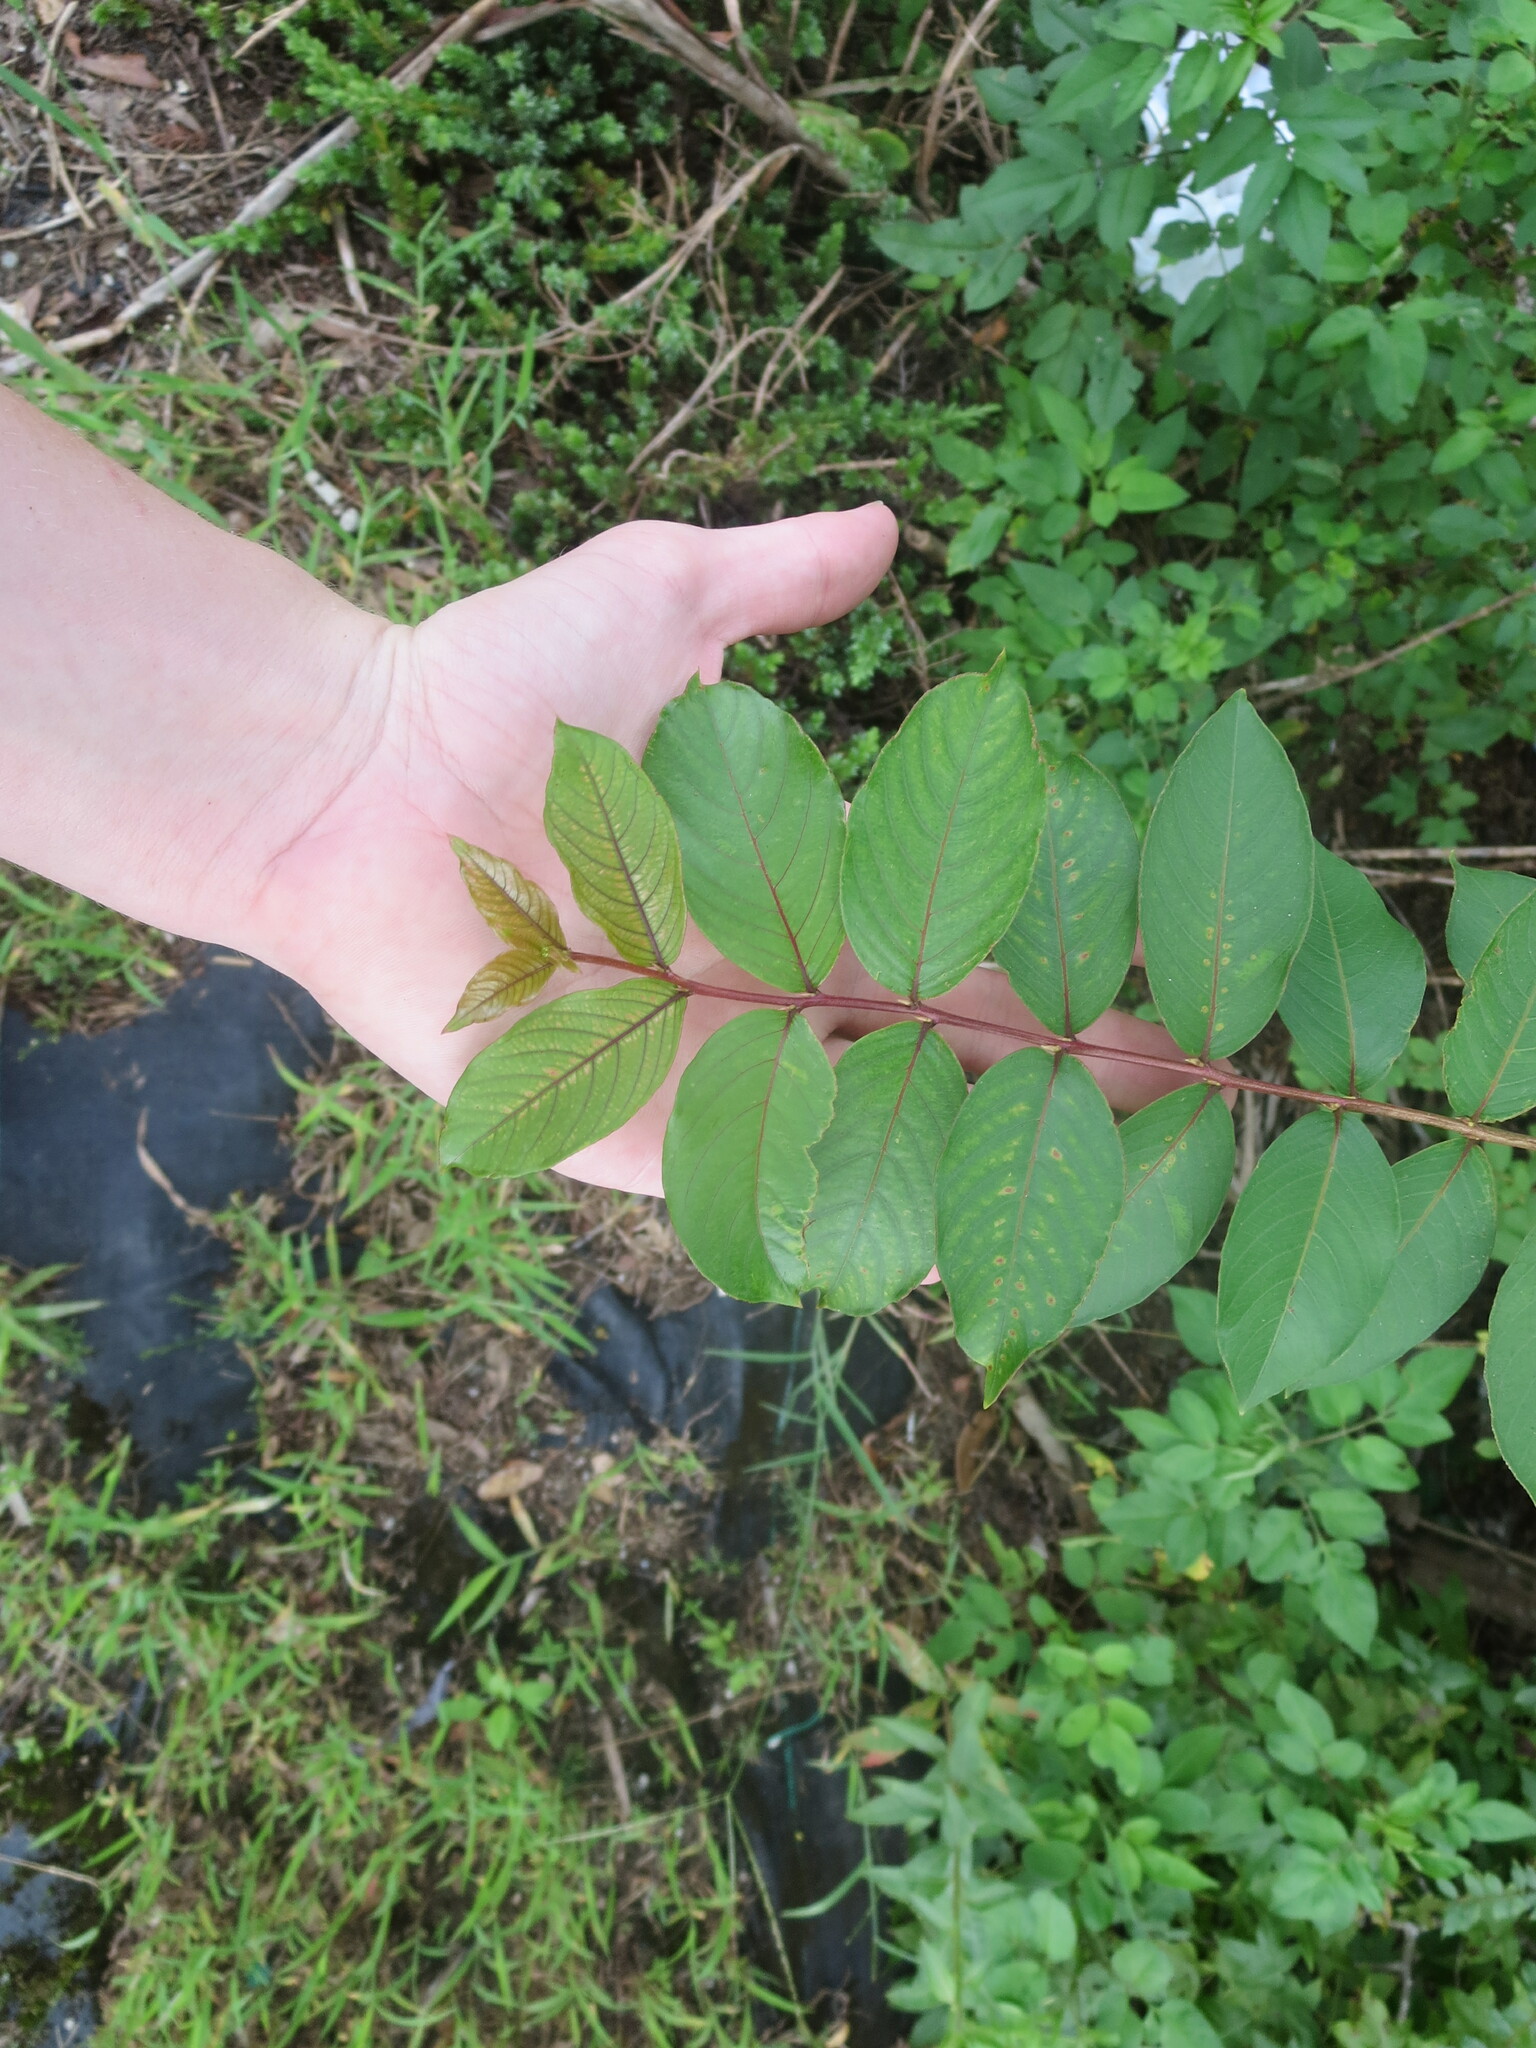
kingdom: Plantae
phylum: Tracheophyta
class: Magnoliopsida
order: Myrtales
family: Lythraceae
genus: Lagerstroemia
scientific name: Lagerstroemia indica
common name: Crape-myrtle
